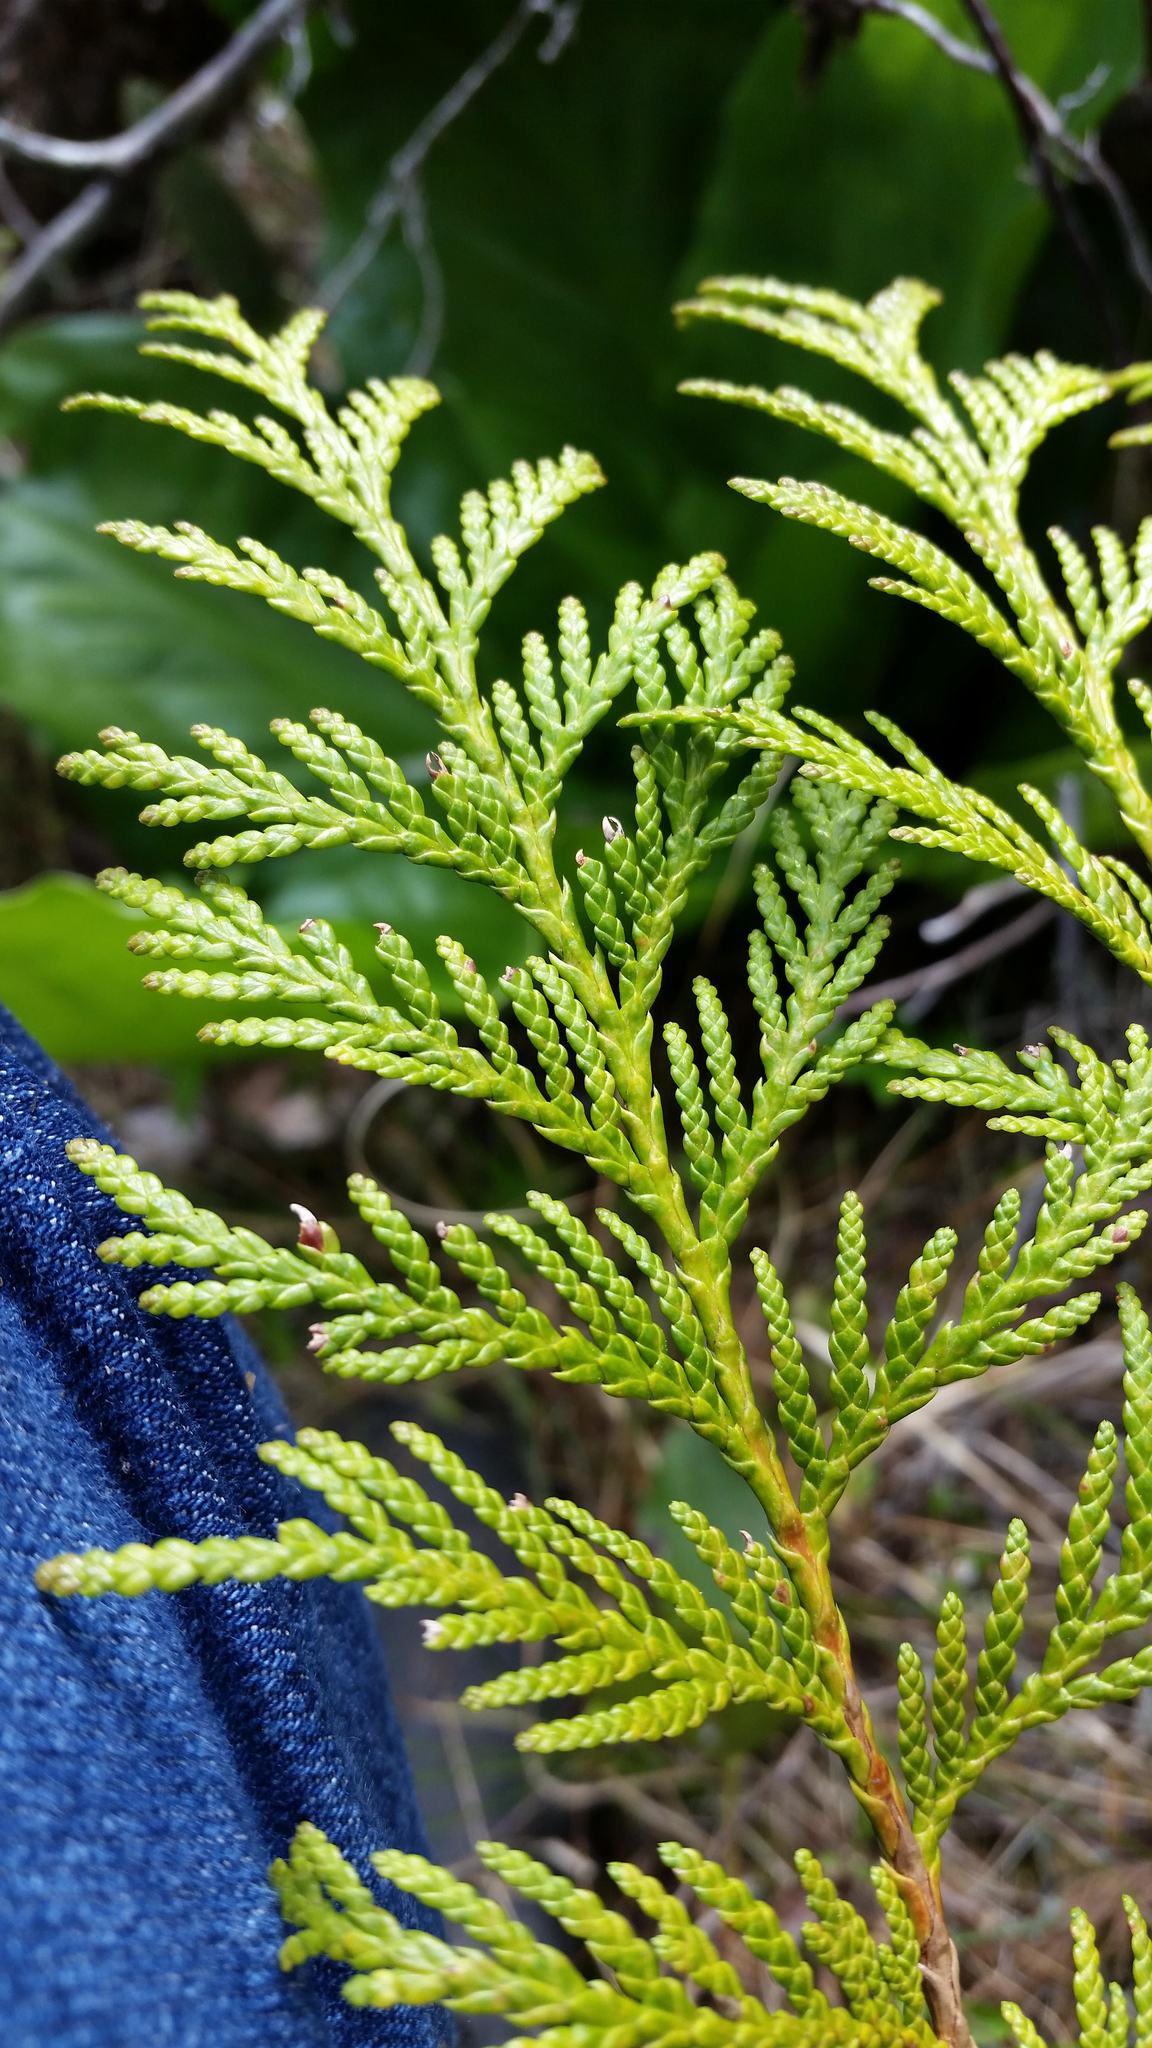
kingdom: Plantae
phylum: Tracheophyta
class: Pinopsida
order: Pinales
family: Cupressaceae
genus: Thuja
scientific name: Thuja plicata
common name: Western red-cedar
